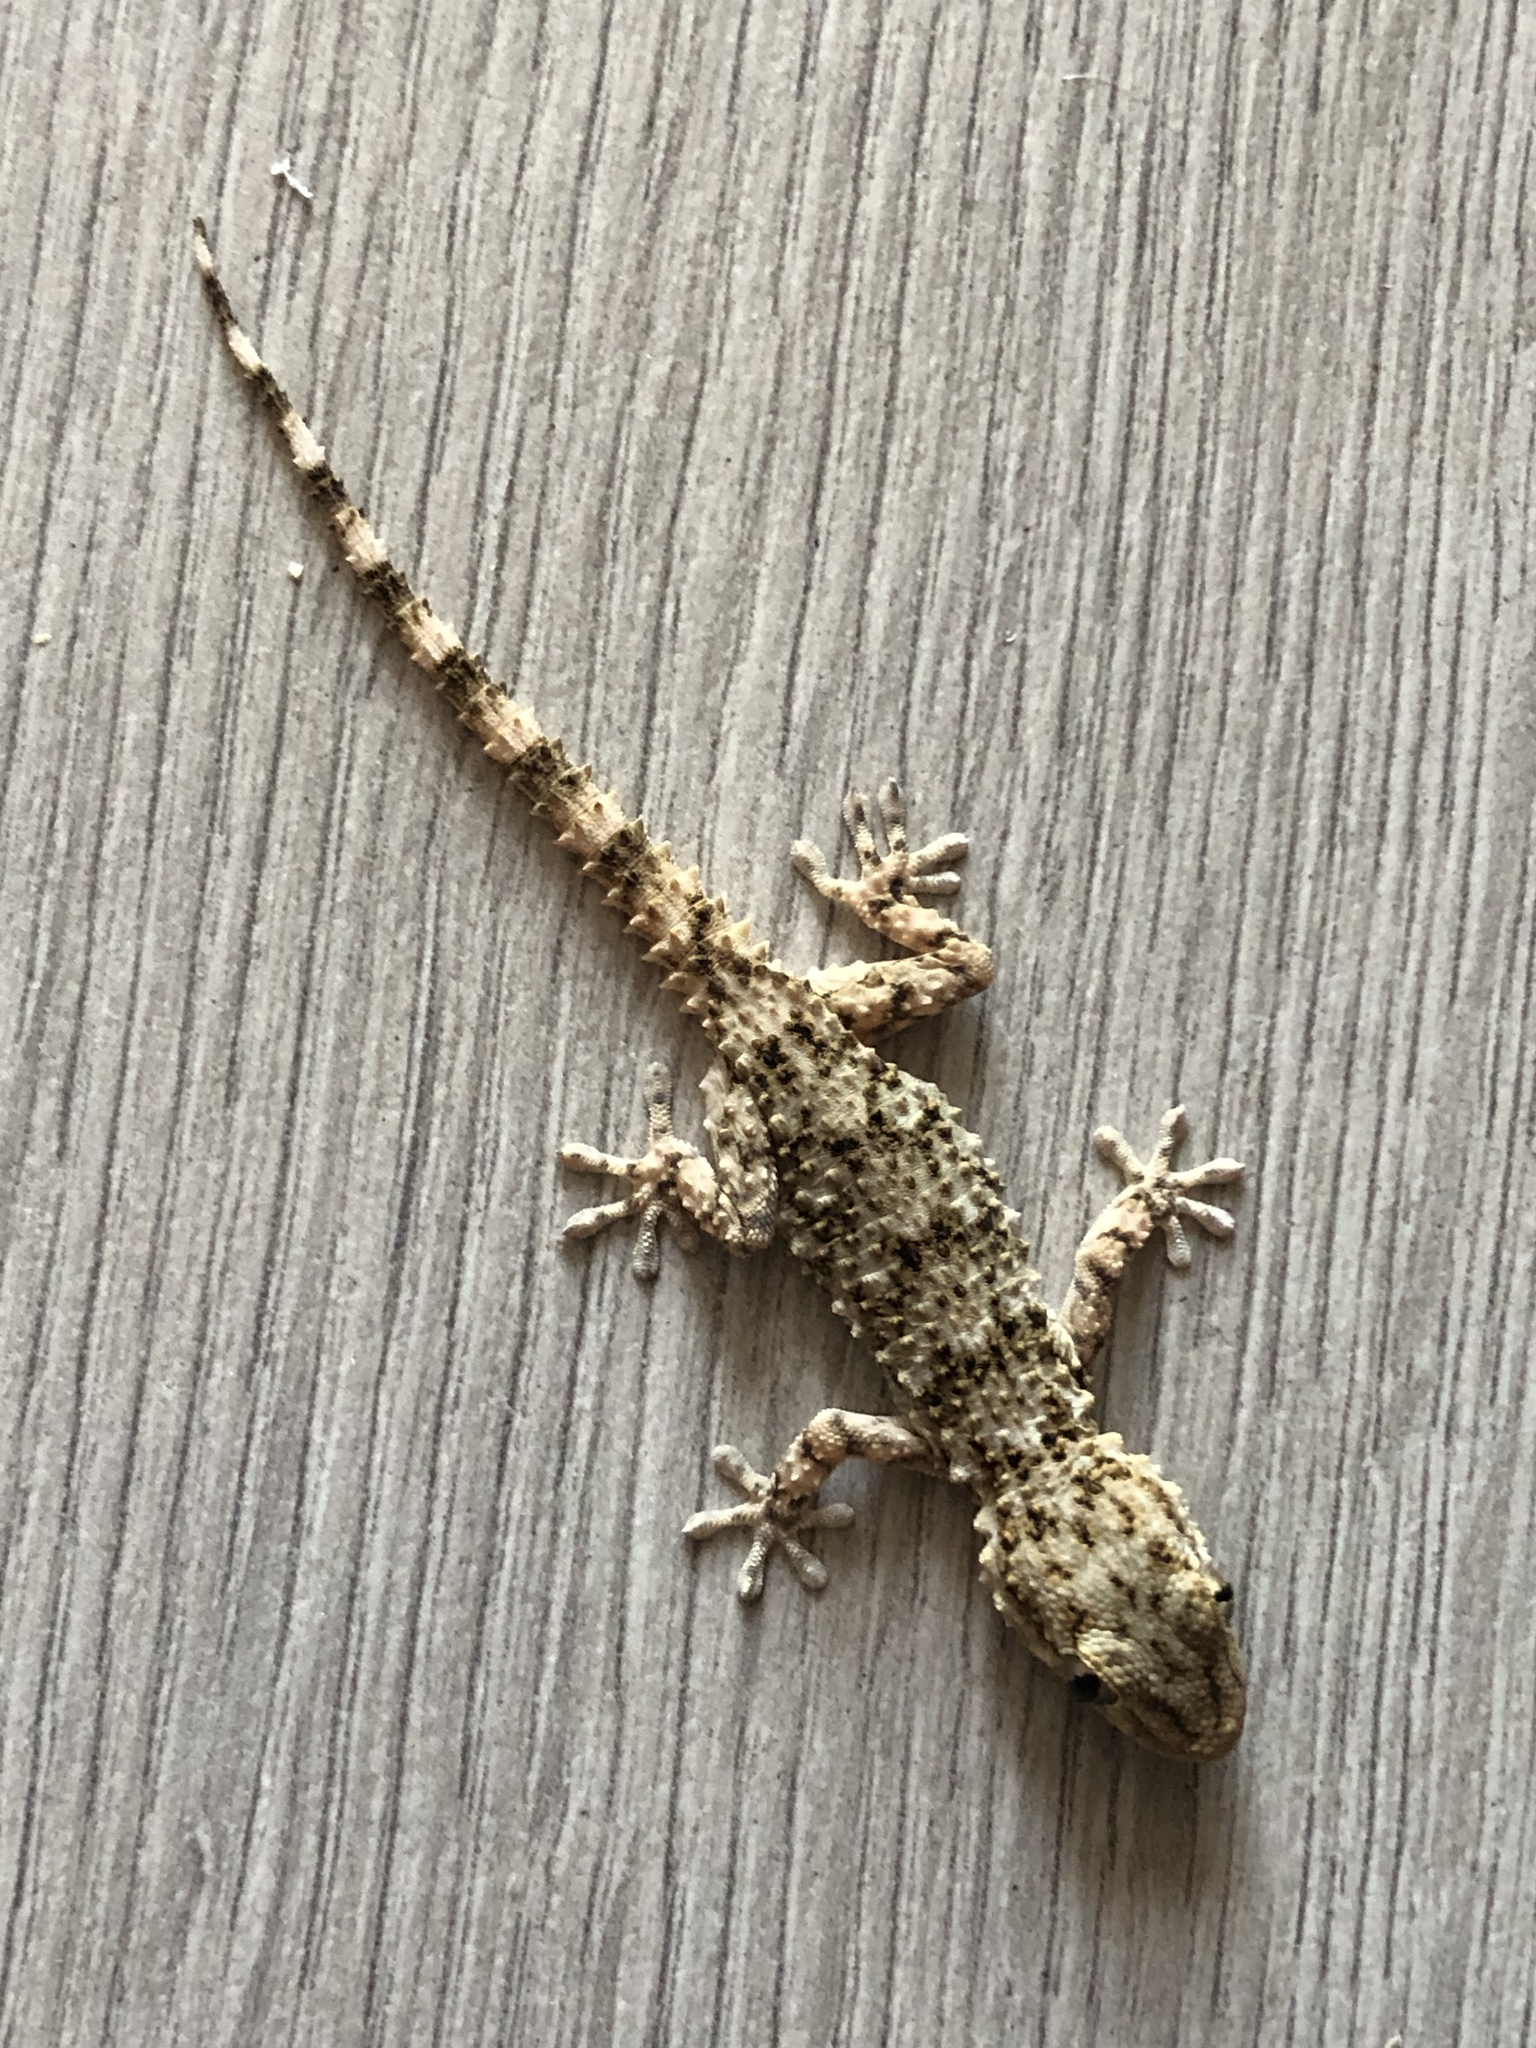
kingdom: Animalia
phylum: Chordata
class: Squamata
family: Phyllodactylidae
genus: Tarentola
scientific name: Tarentola mauritanica
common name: Moorish gecko
